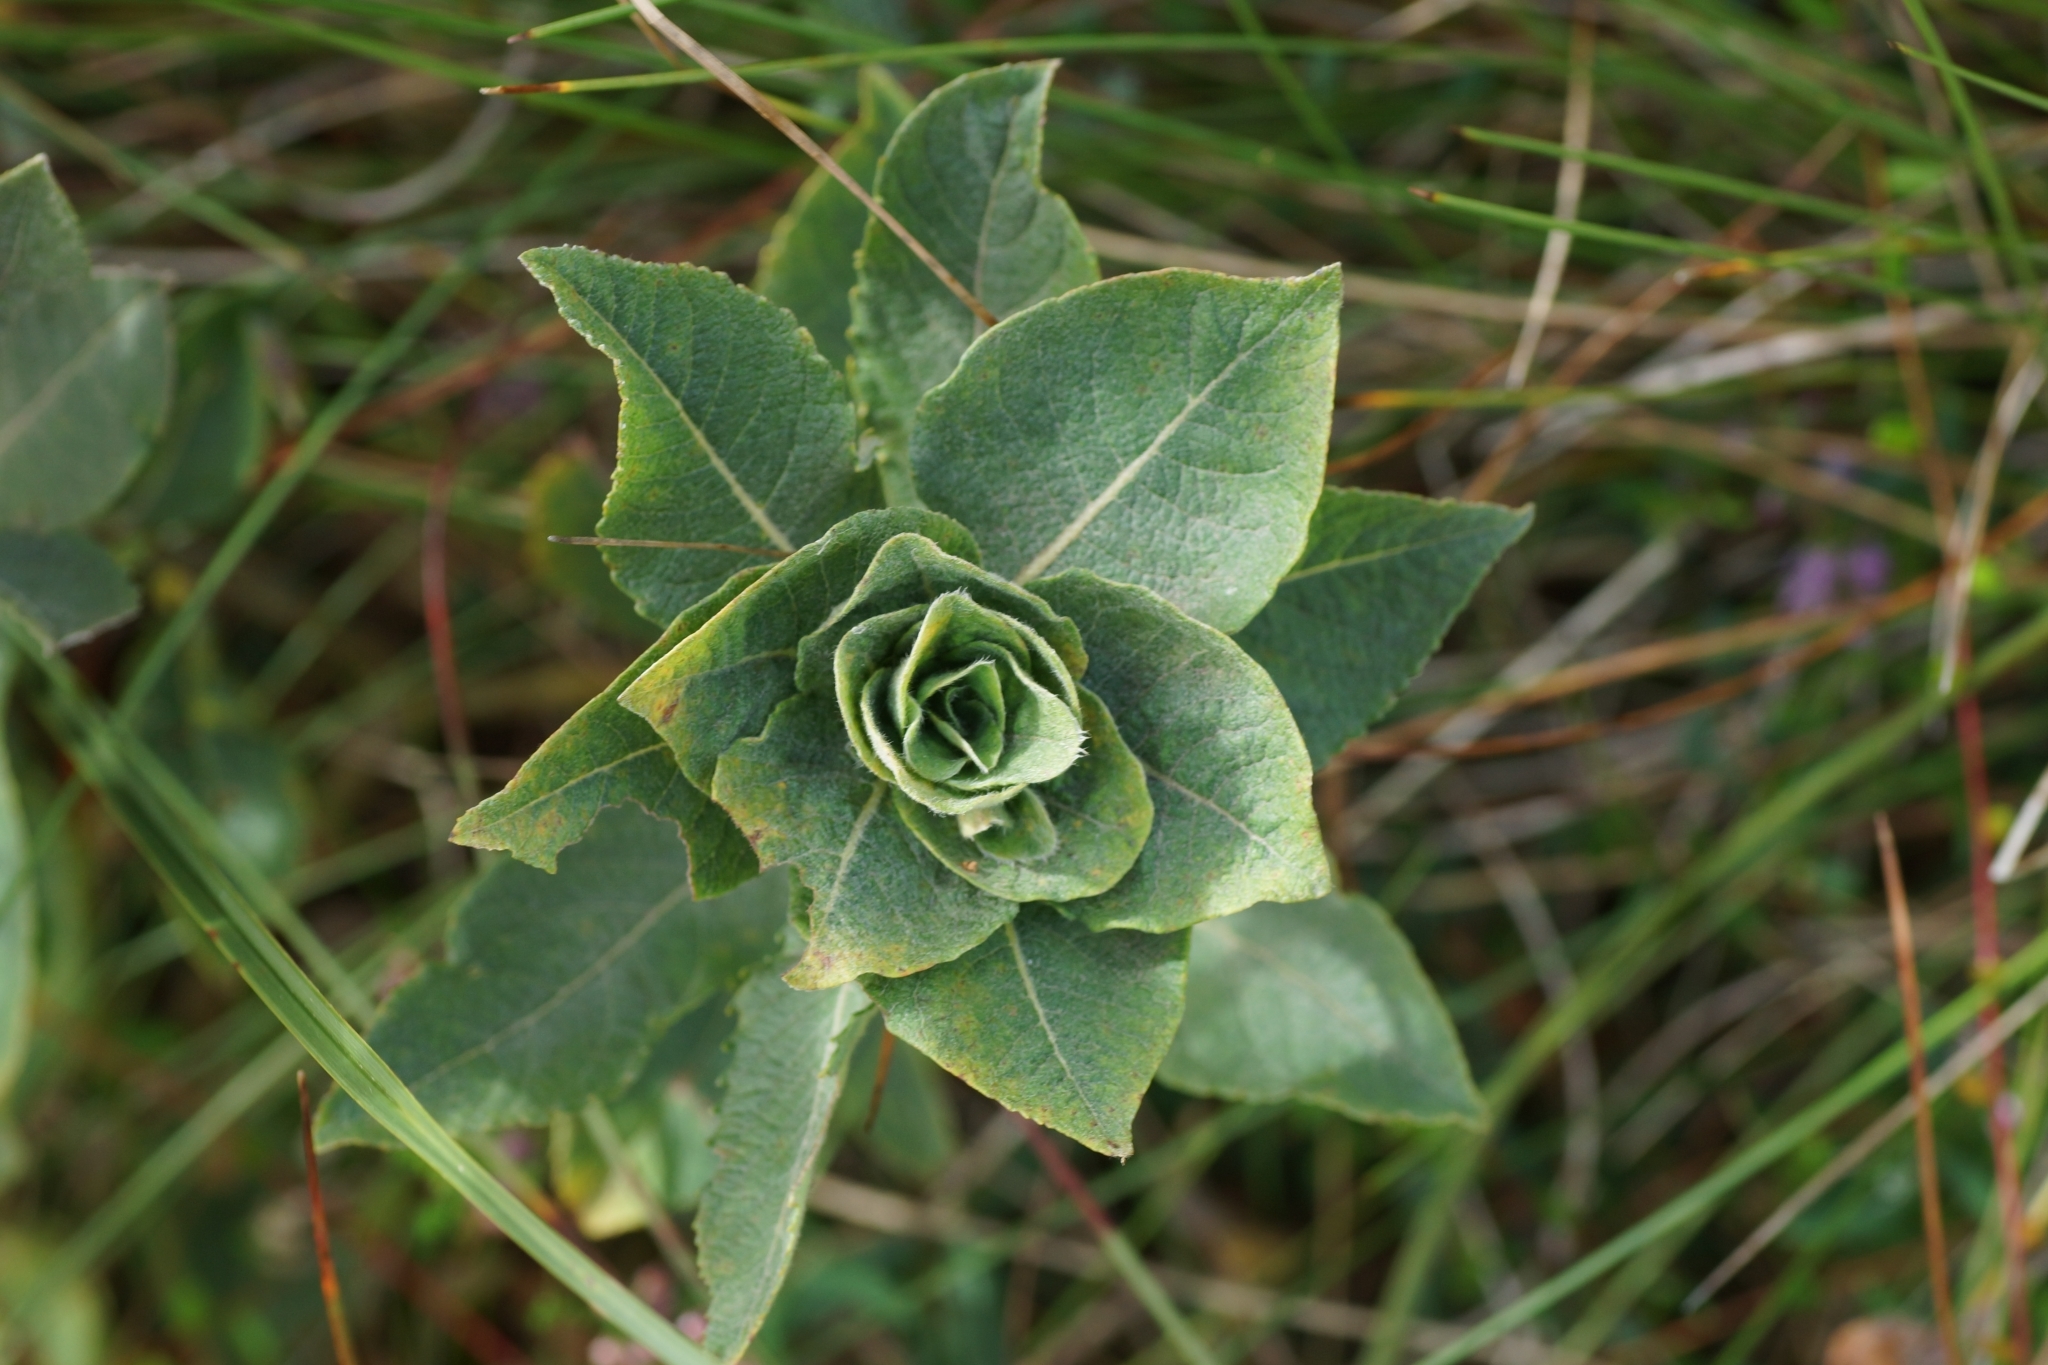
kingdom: Animalia
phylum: Arthropoda
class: Insecta
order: Diptera
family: Cecidomyiidae
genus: Rabdophaga
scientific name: Rabdophaga rosaria
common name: Willow rose gall midge
